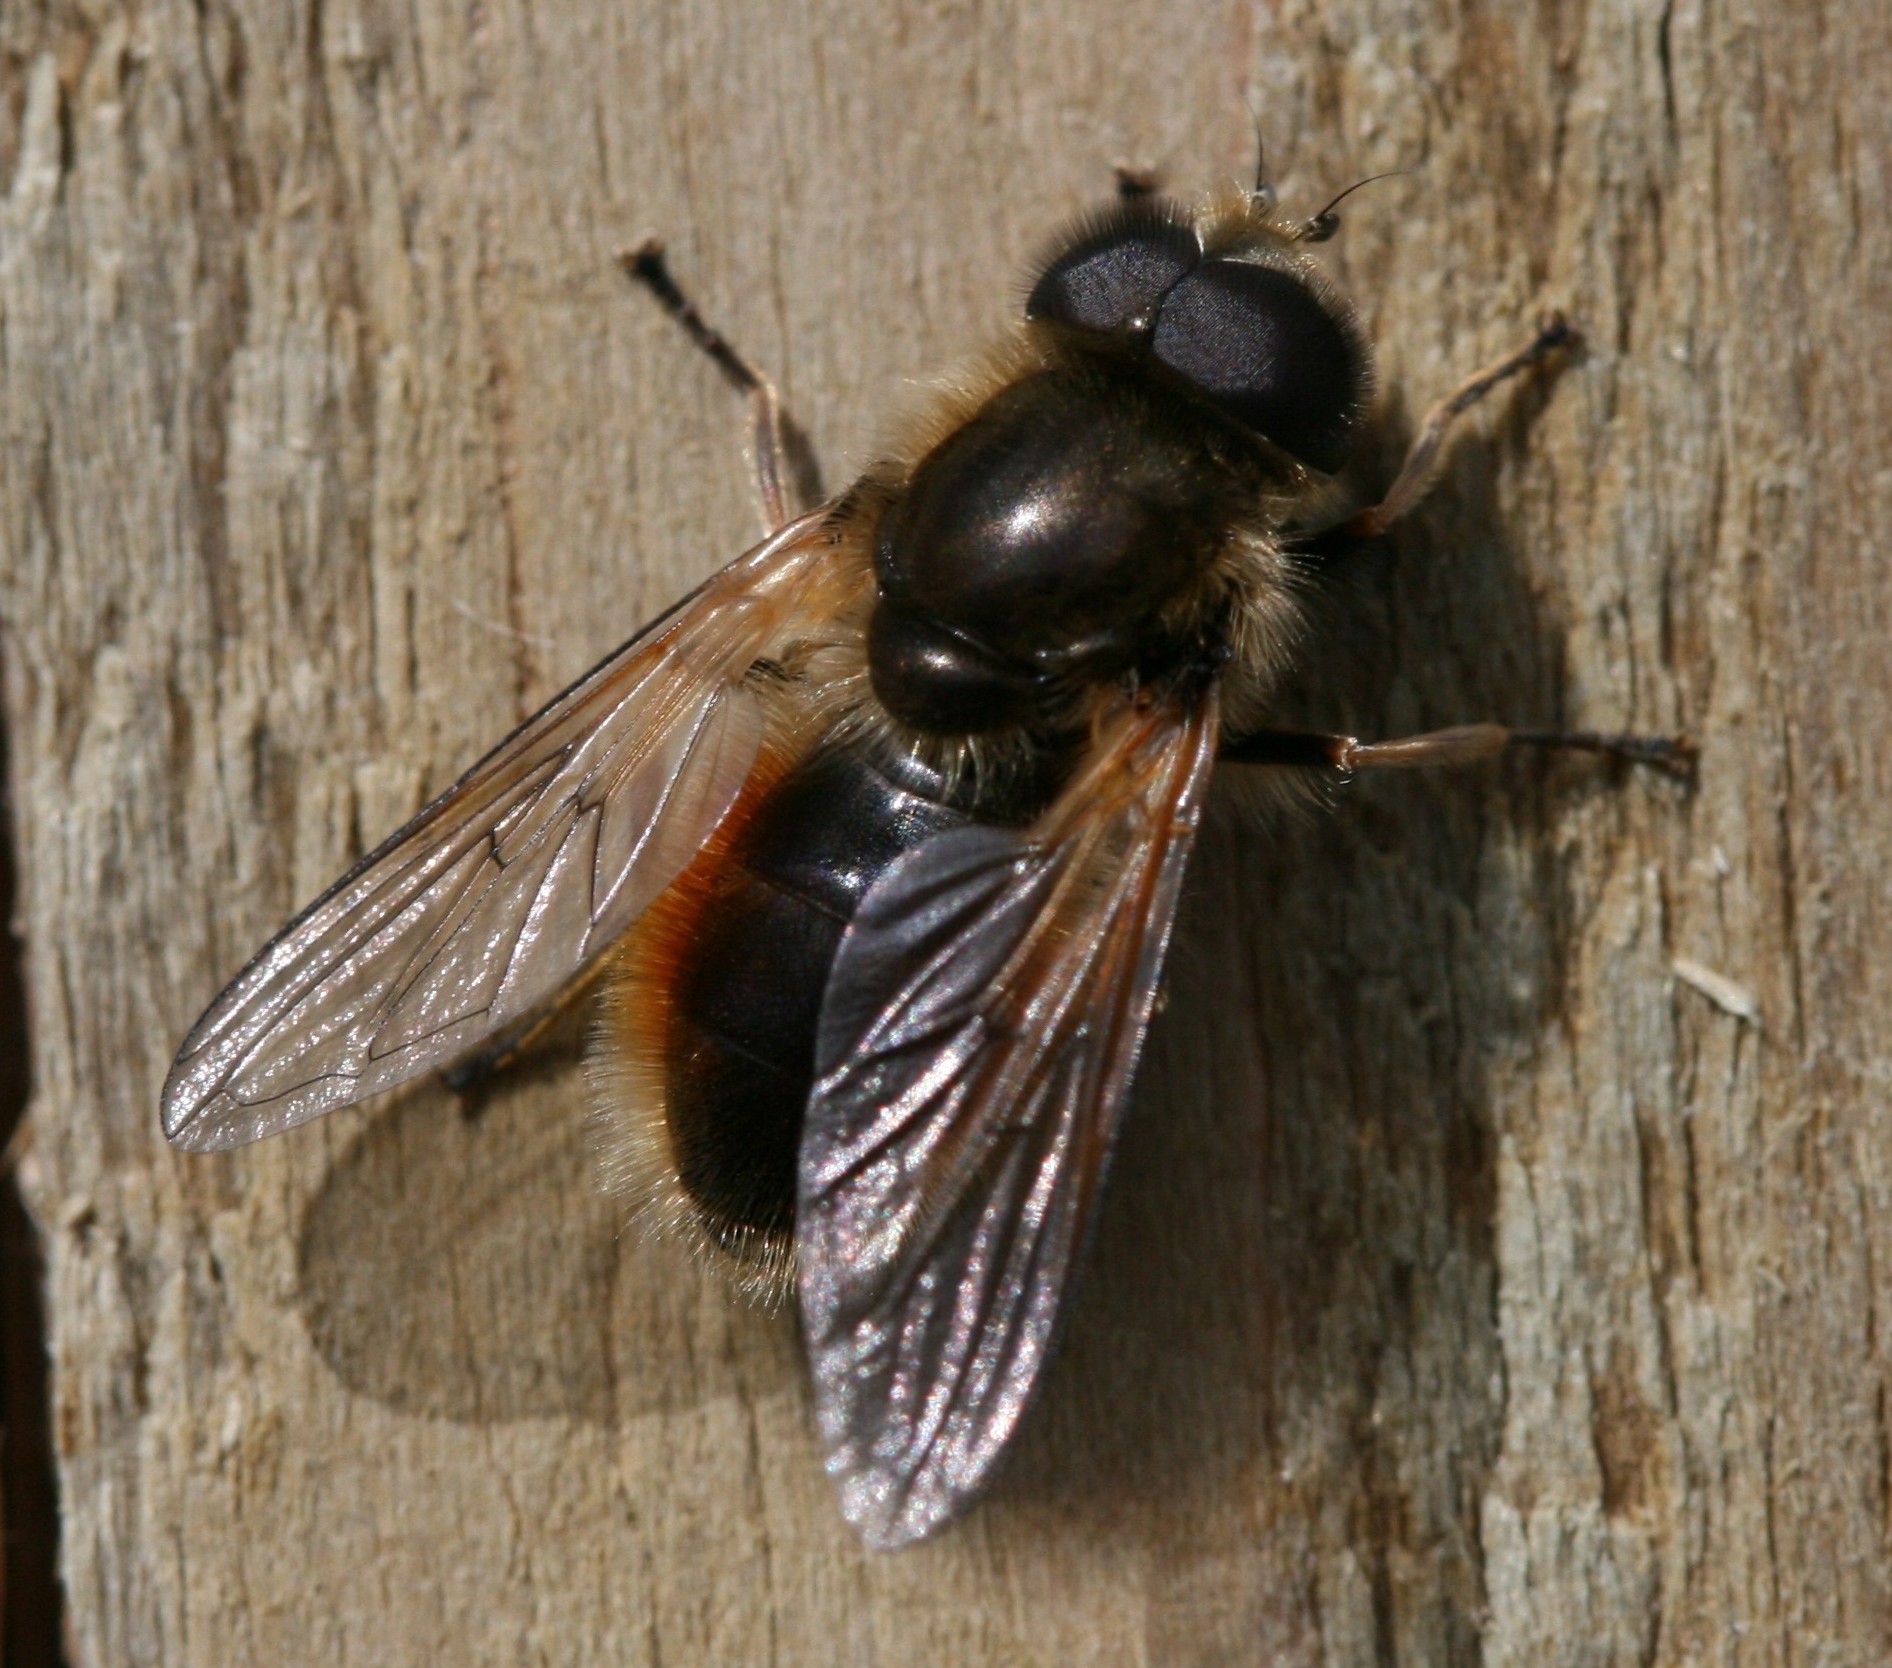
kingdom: Animalia
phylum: Arthropoda
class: Insecta
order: Diptera
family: Syrphidae
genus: Cheilosia
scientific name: Cheilosia corydon
